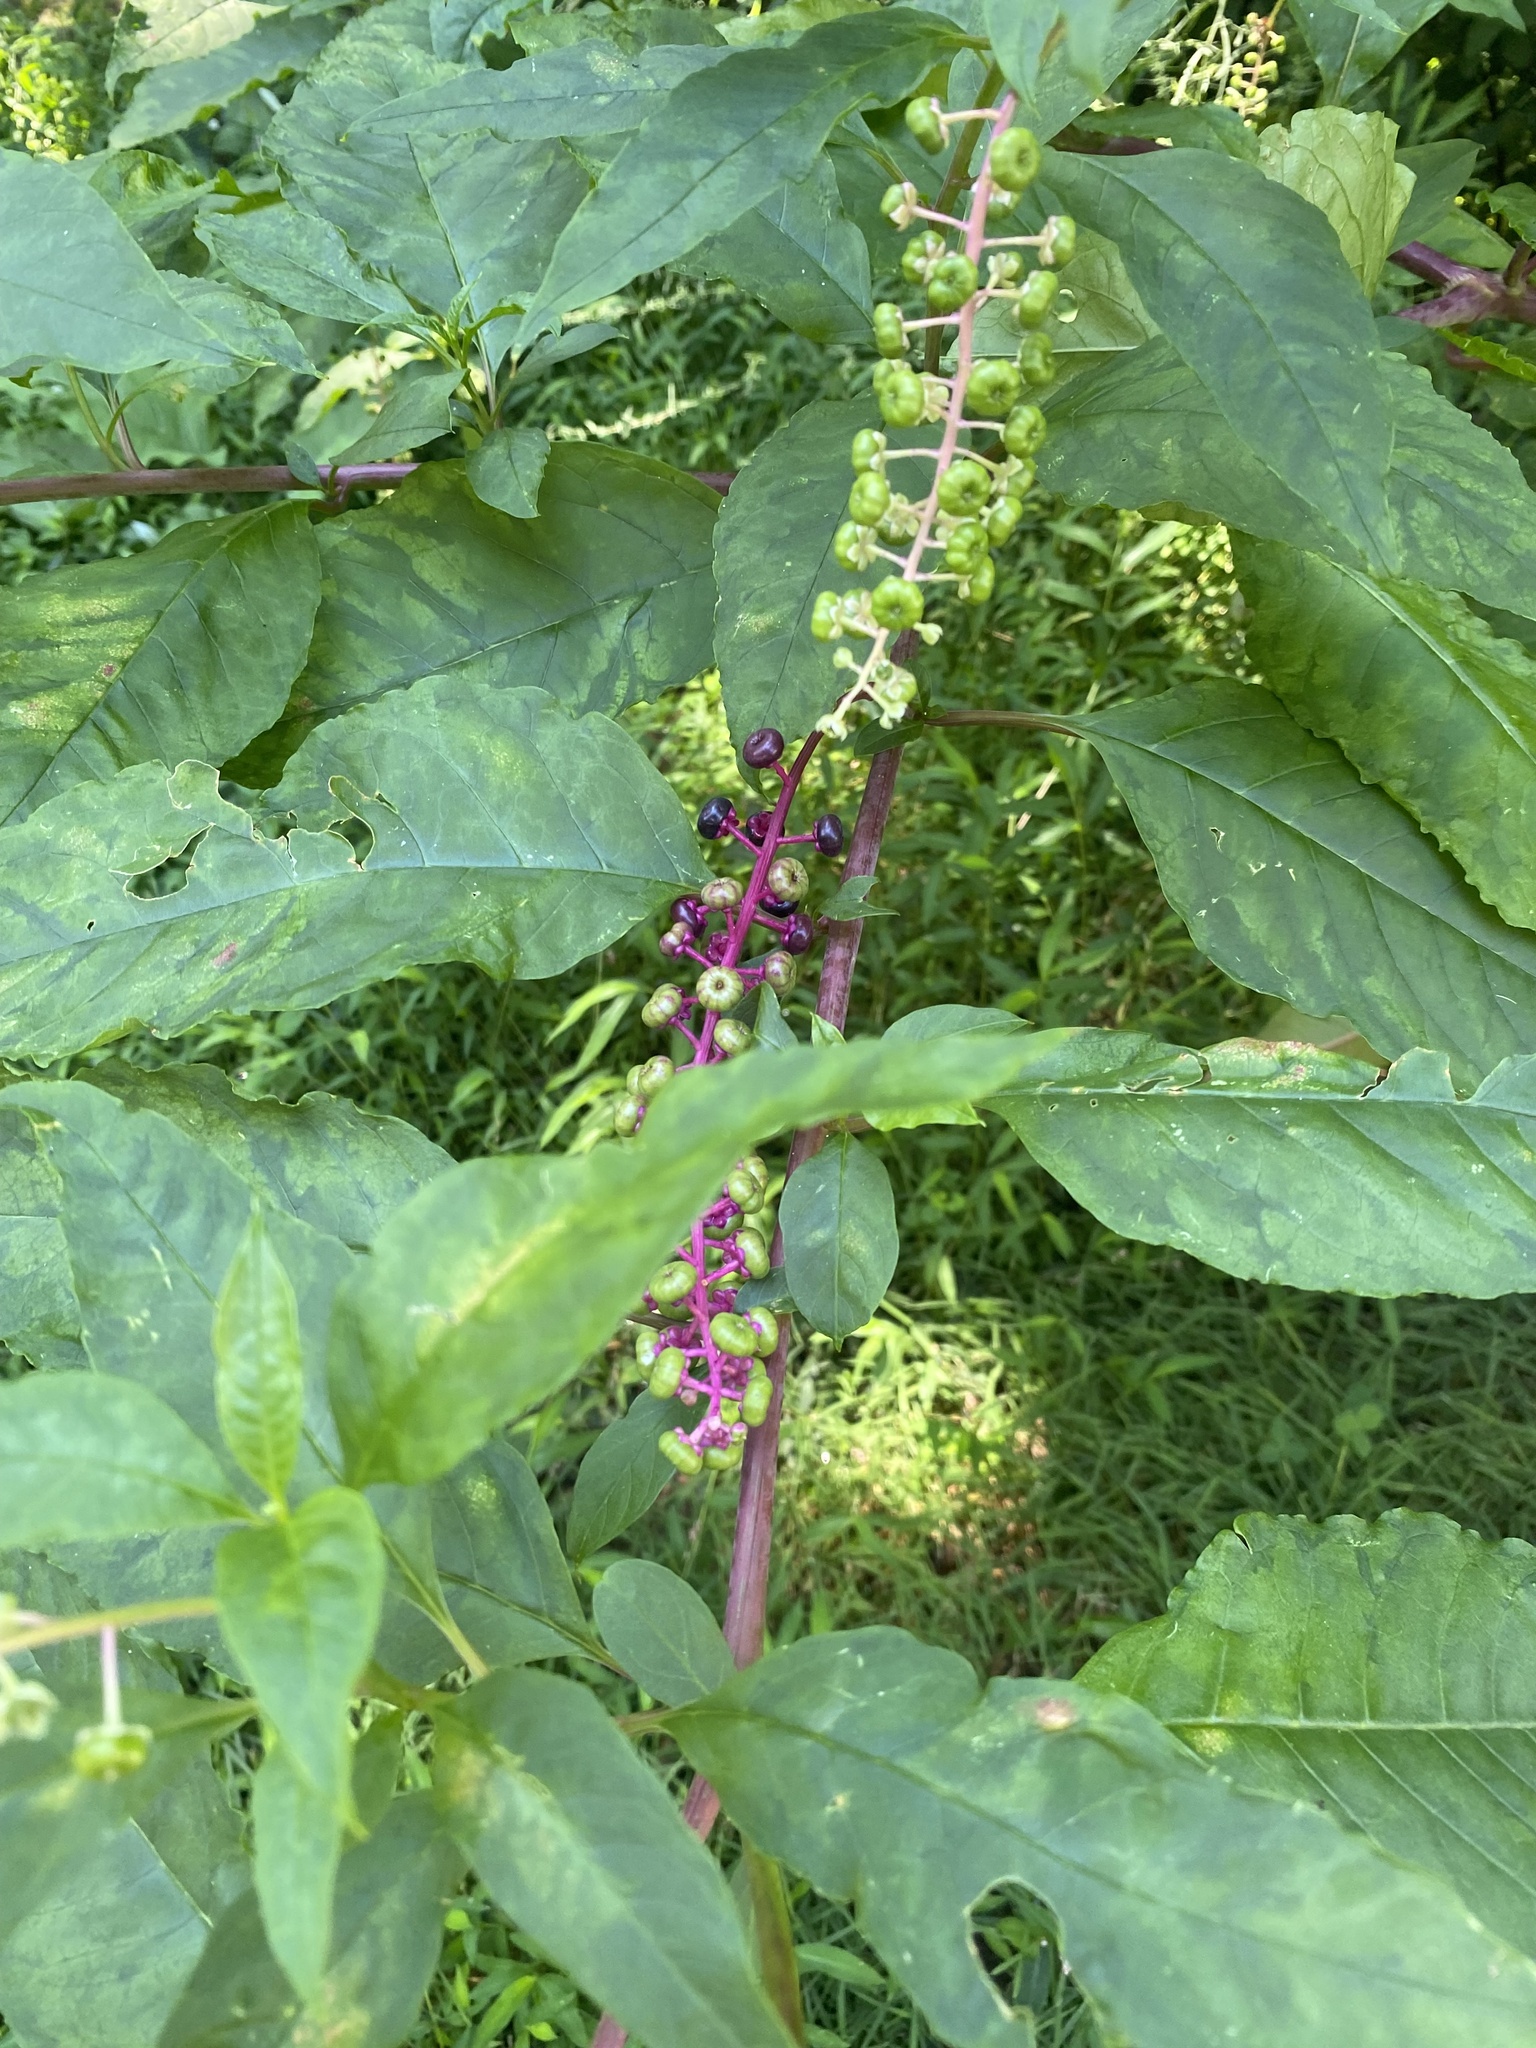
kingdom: Plantae
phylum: Tracheophyta
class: Magnoliopsida
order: Caryophyllales
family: Phytolaccaceae
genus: Phytolacca
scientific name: Phytolacca americana
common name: American pokeweed
